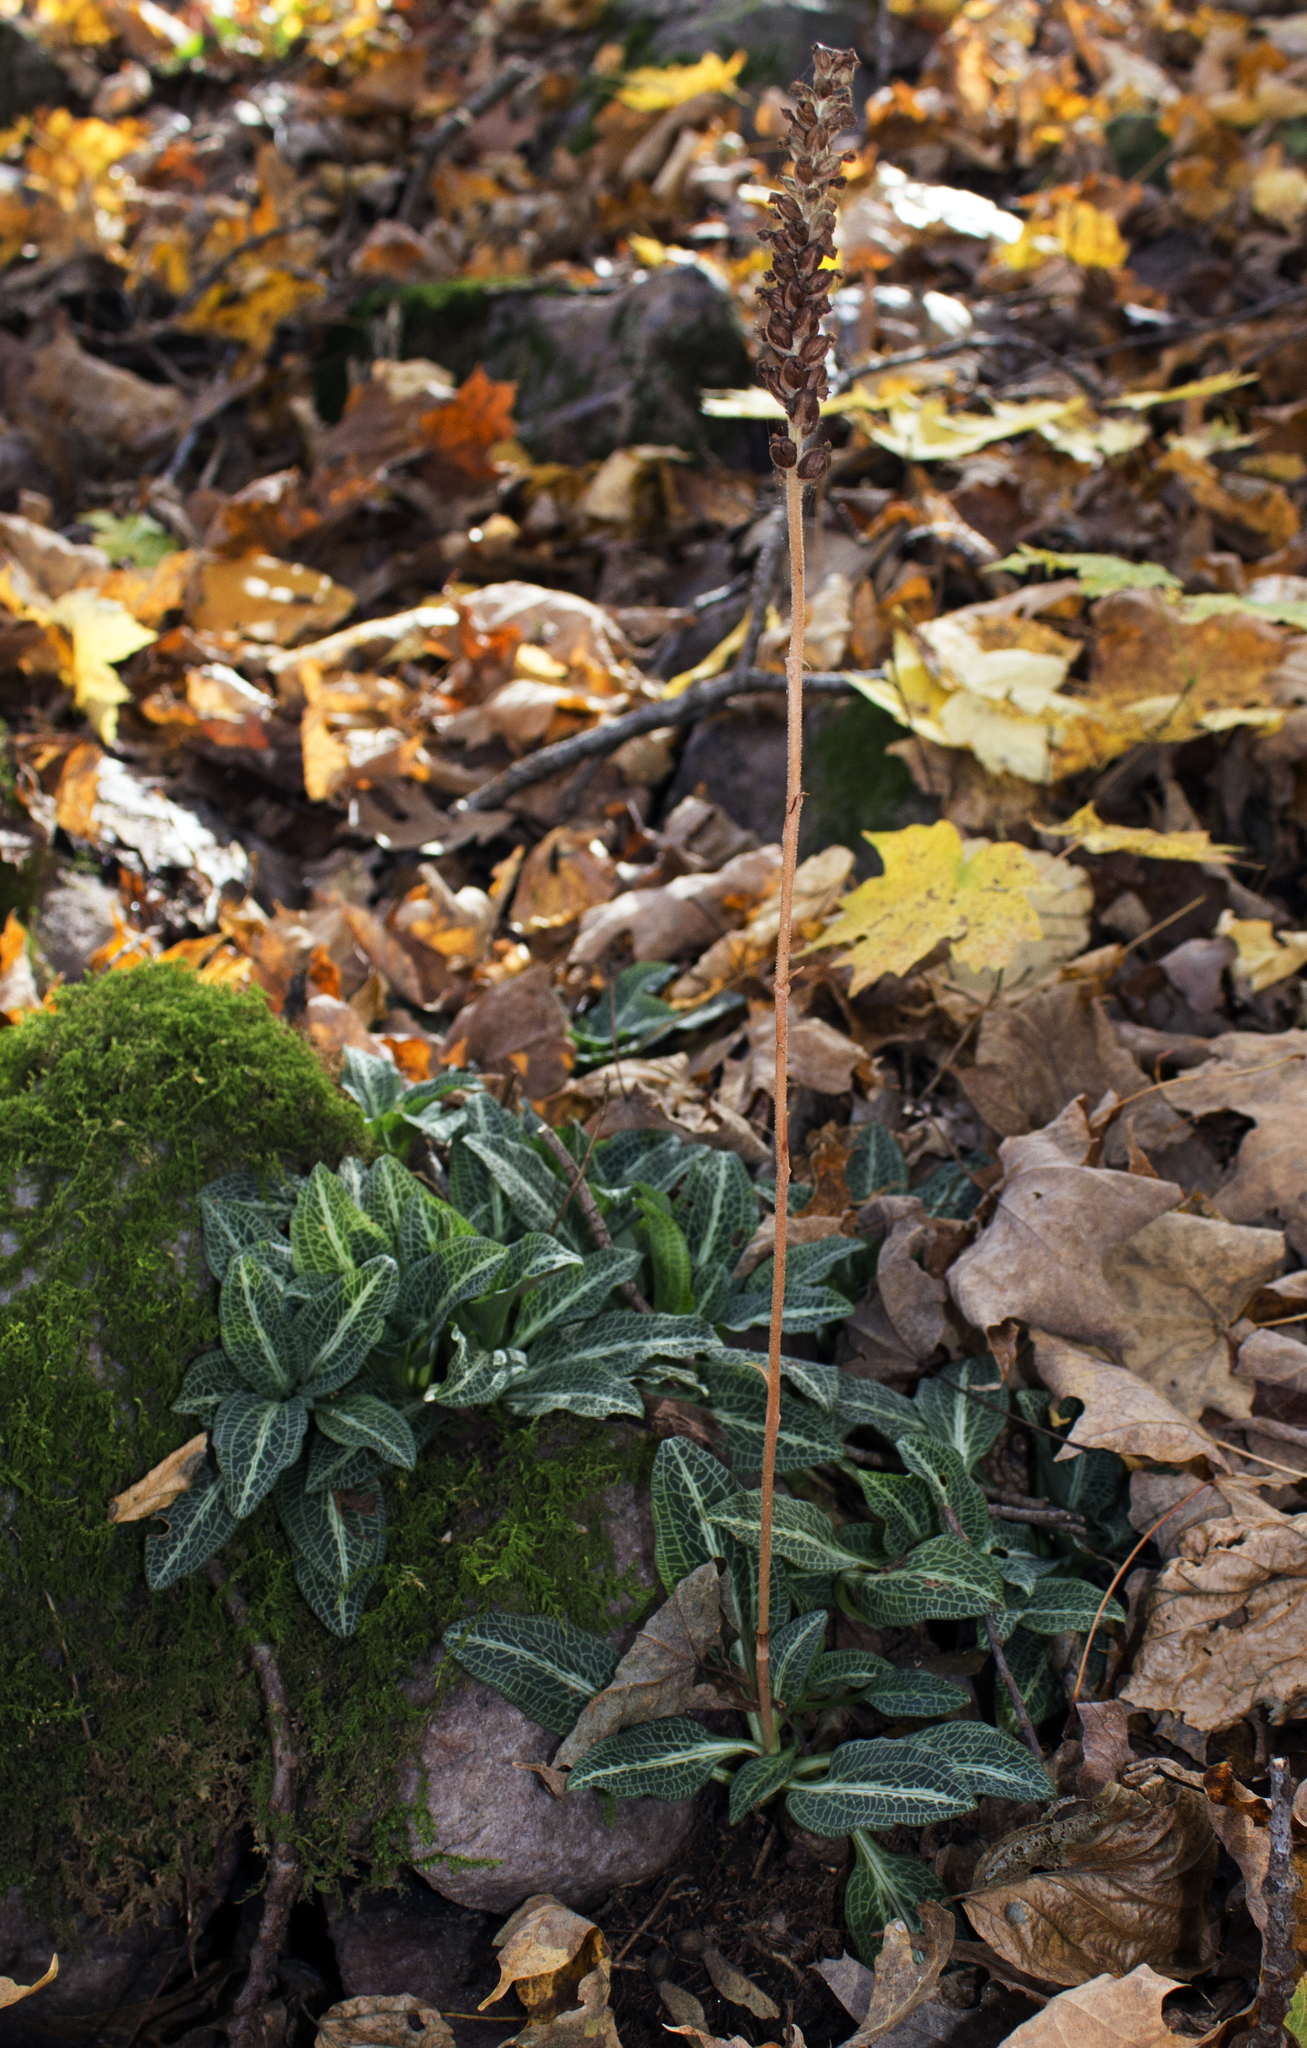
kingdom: Plantae
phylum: Tracheophyta
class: Liliopsida
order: Asparagales
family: Orchidaceae
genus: Goodyera
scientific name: Goodyera pubescens
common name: Downy rattlesnake-plantain
